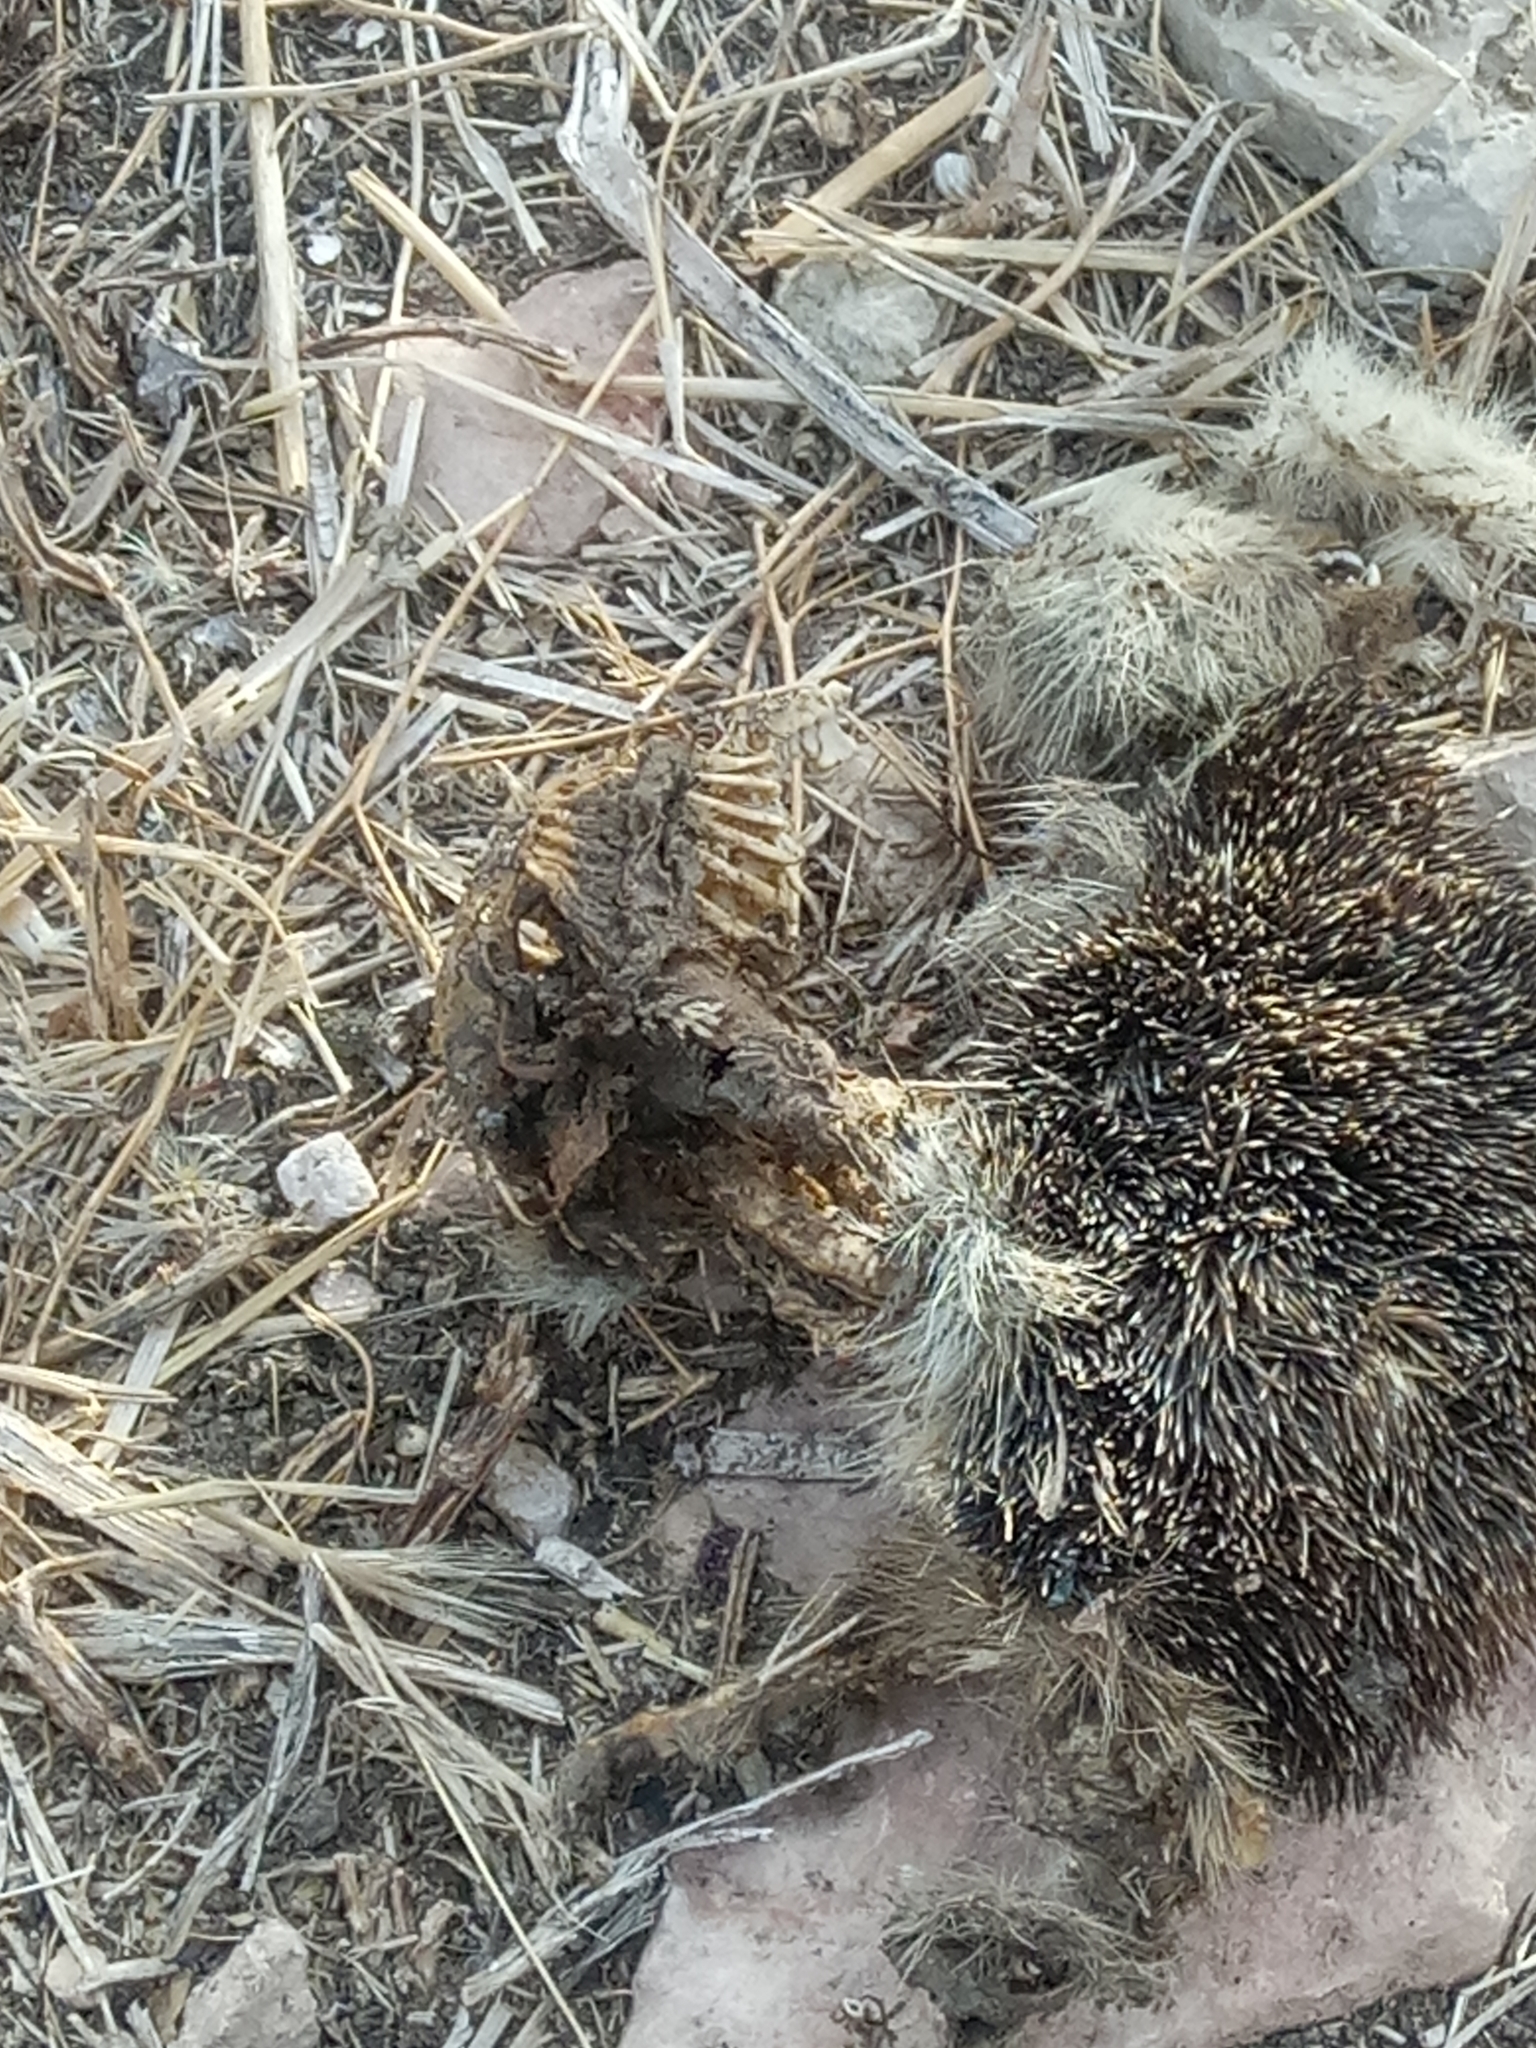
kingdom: Animalia
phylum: Chordata
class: Mammalia
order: Erinaceomorpha
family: Erinaceidae
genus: Atelerix
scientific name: Atelerix algirus
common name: North african hedgehog
